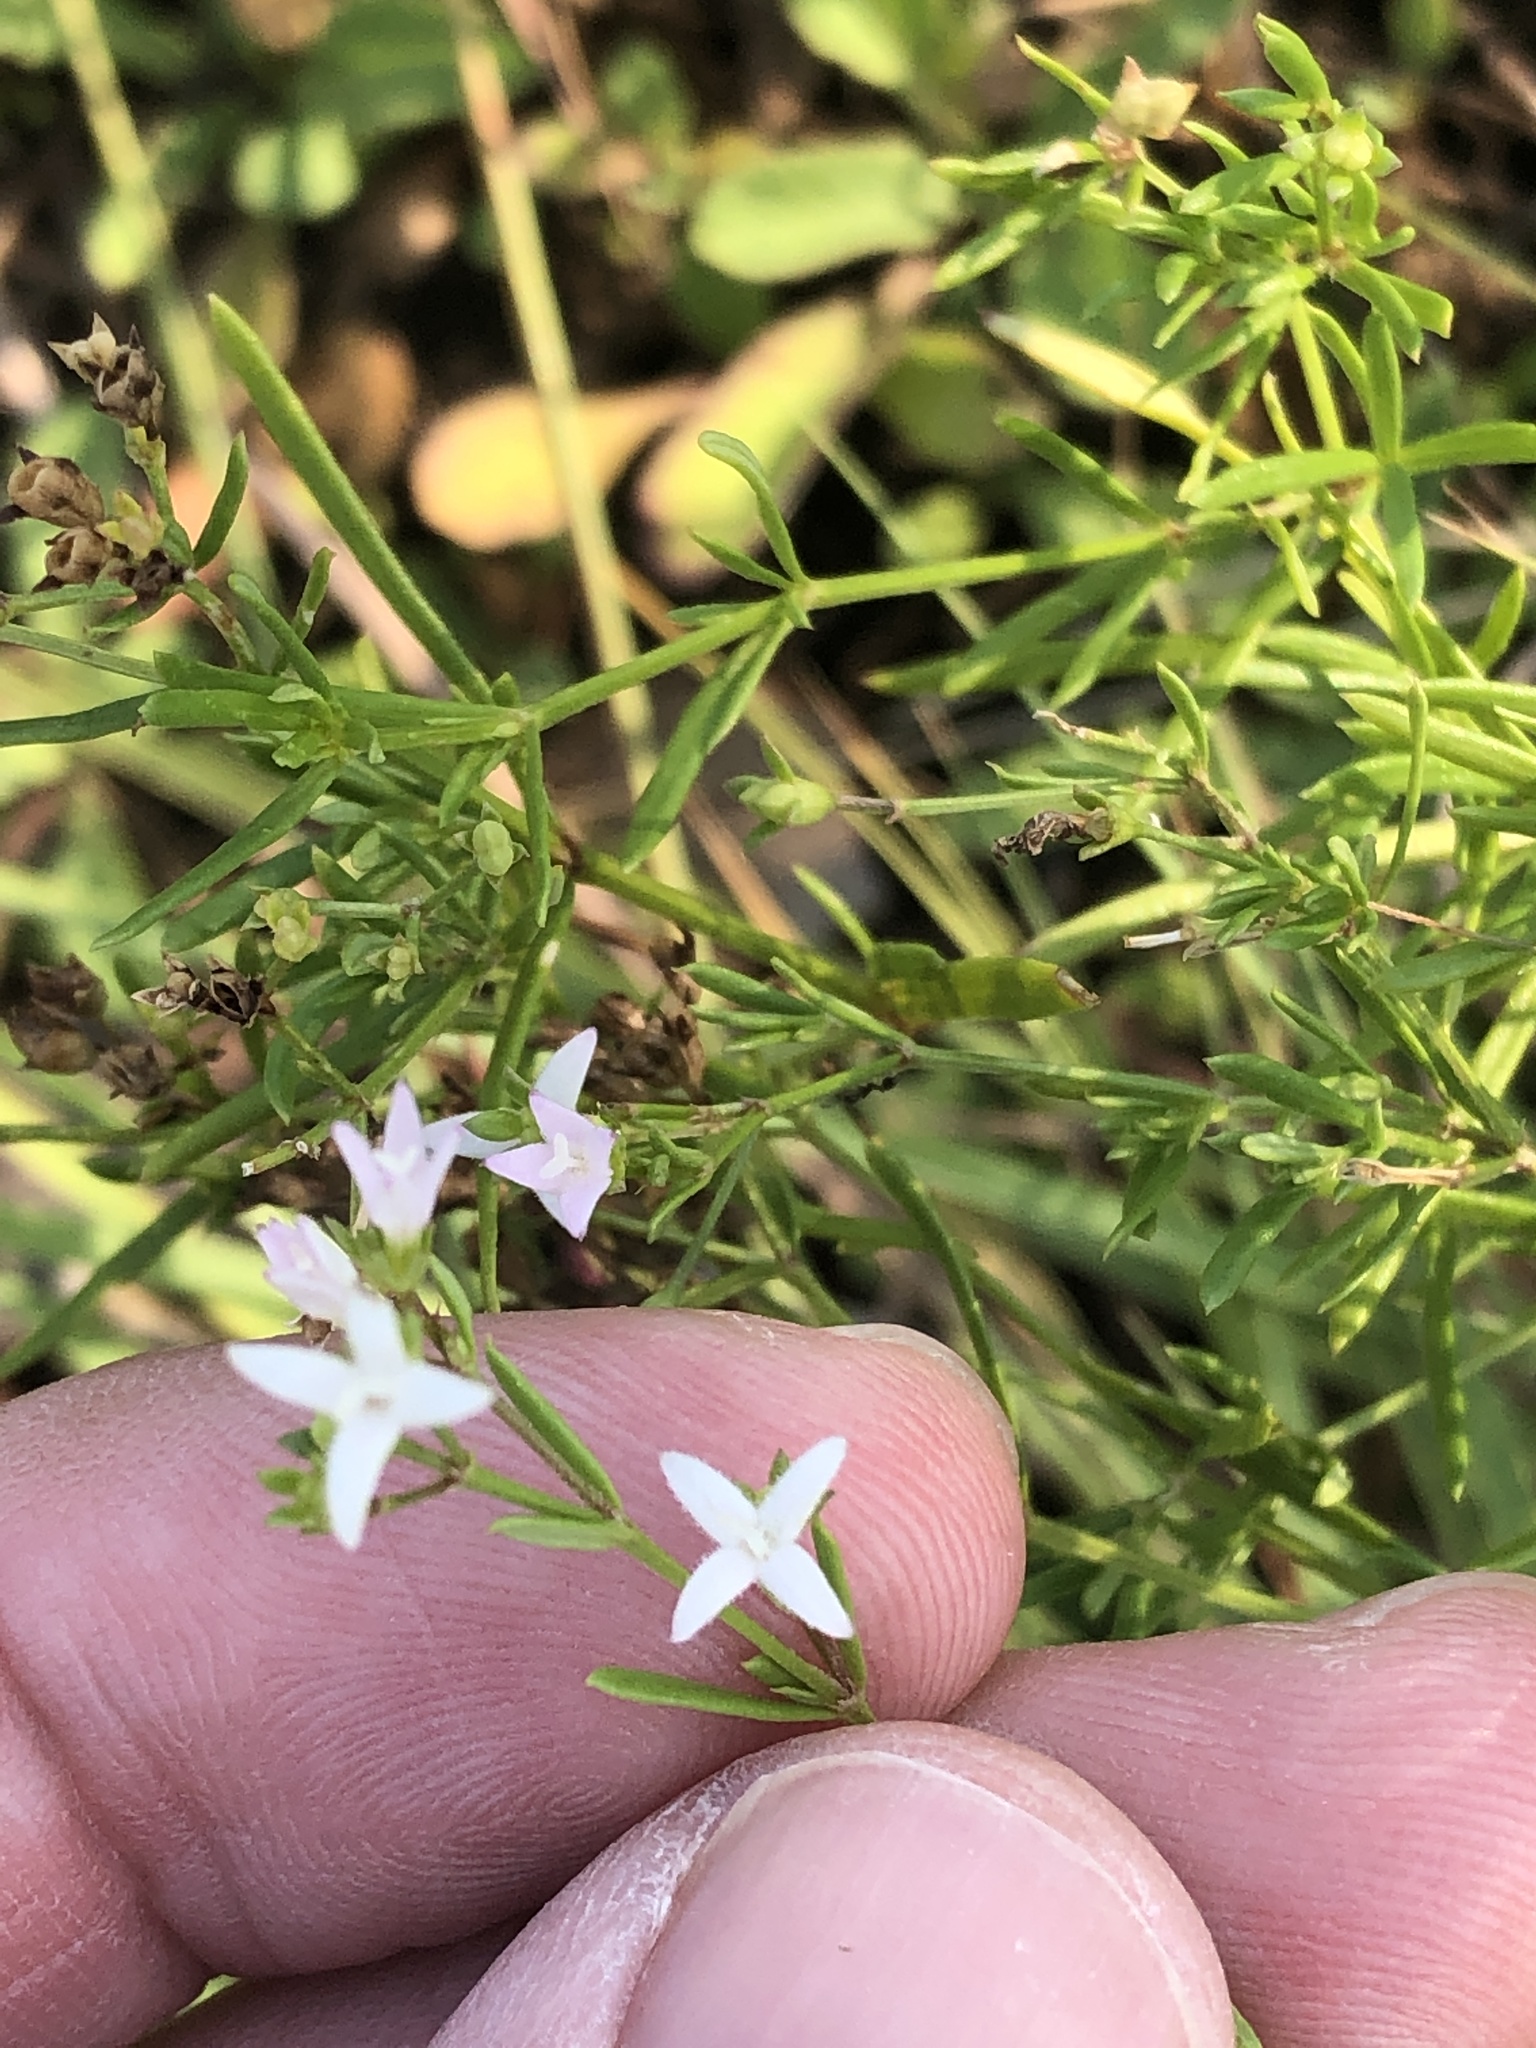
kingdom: Plantae
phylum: Tracheophyta
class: Magnoliopsida
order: Gentianales
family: Rubiaceae
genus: Stenaria
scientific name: Stenaria nigricans
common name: Diamondflowers
